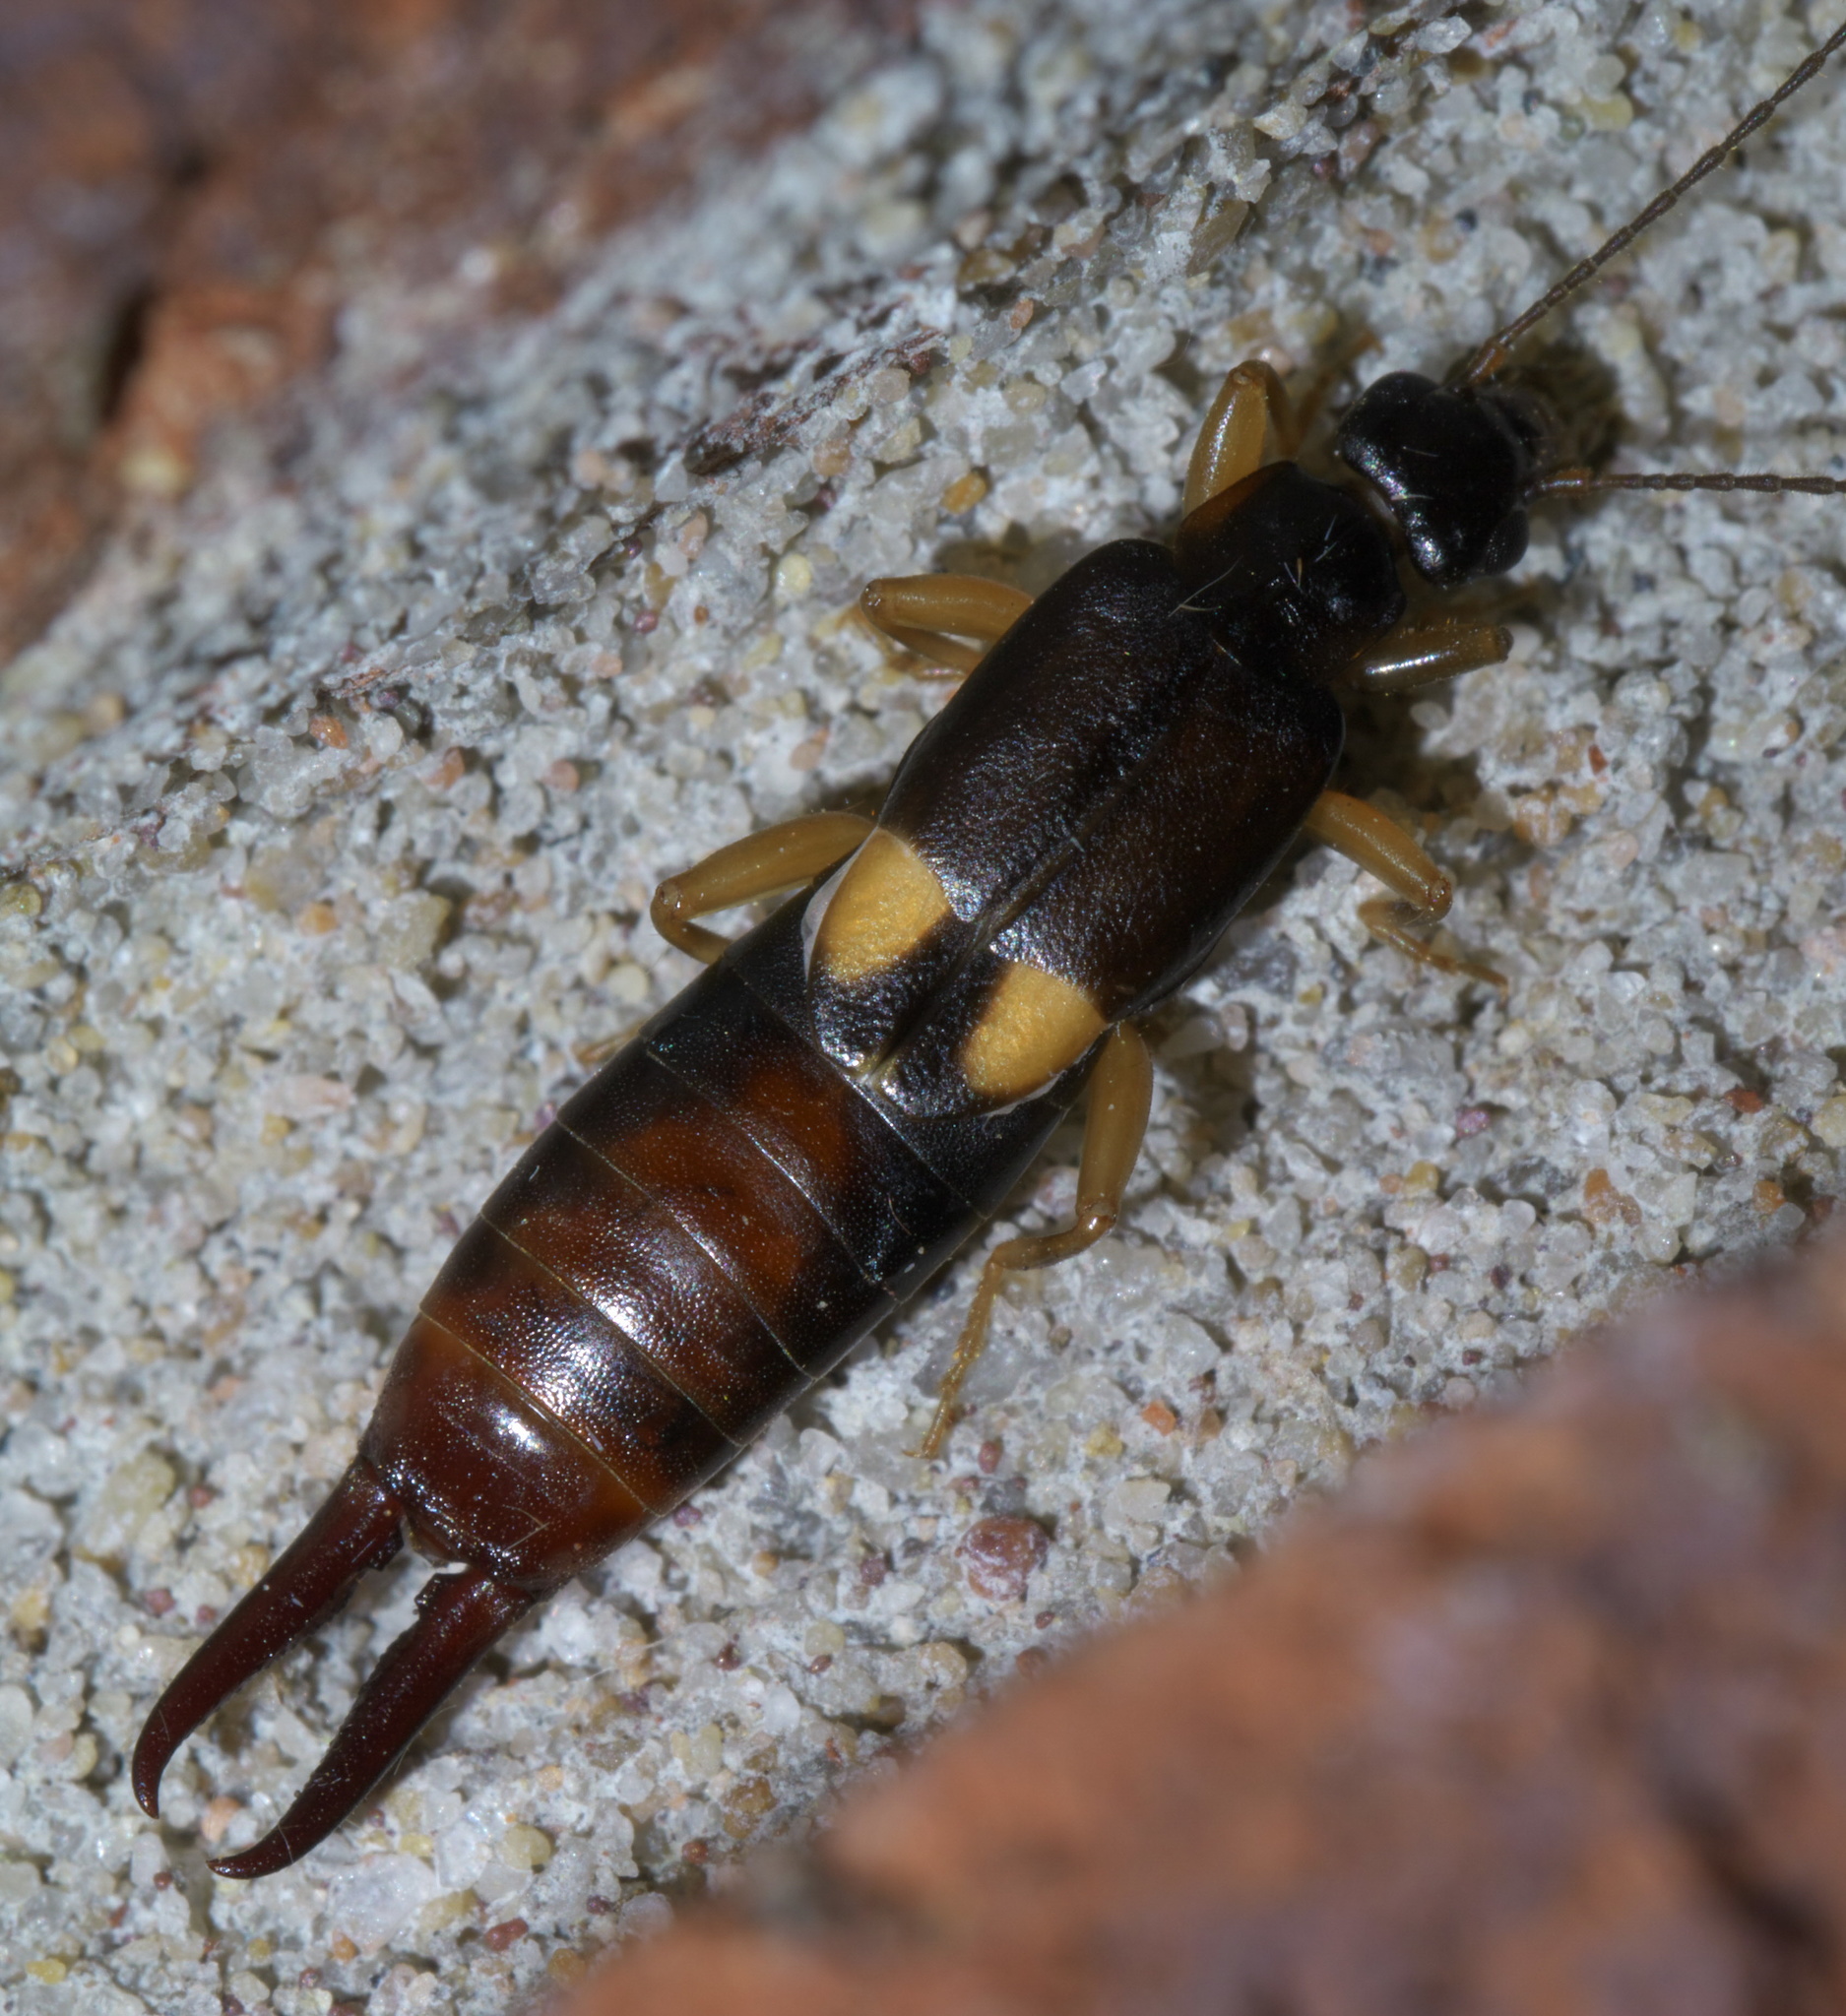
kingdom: Animalia
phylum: Arthropoda
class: Insecta
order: Dermaptera
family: Spongiphoridae
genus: Vostox
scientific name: Vostox brunneipennis
